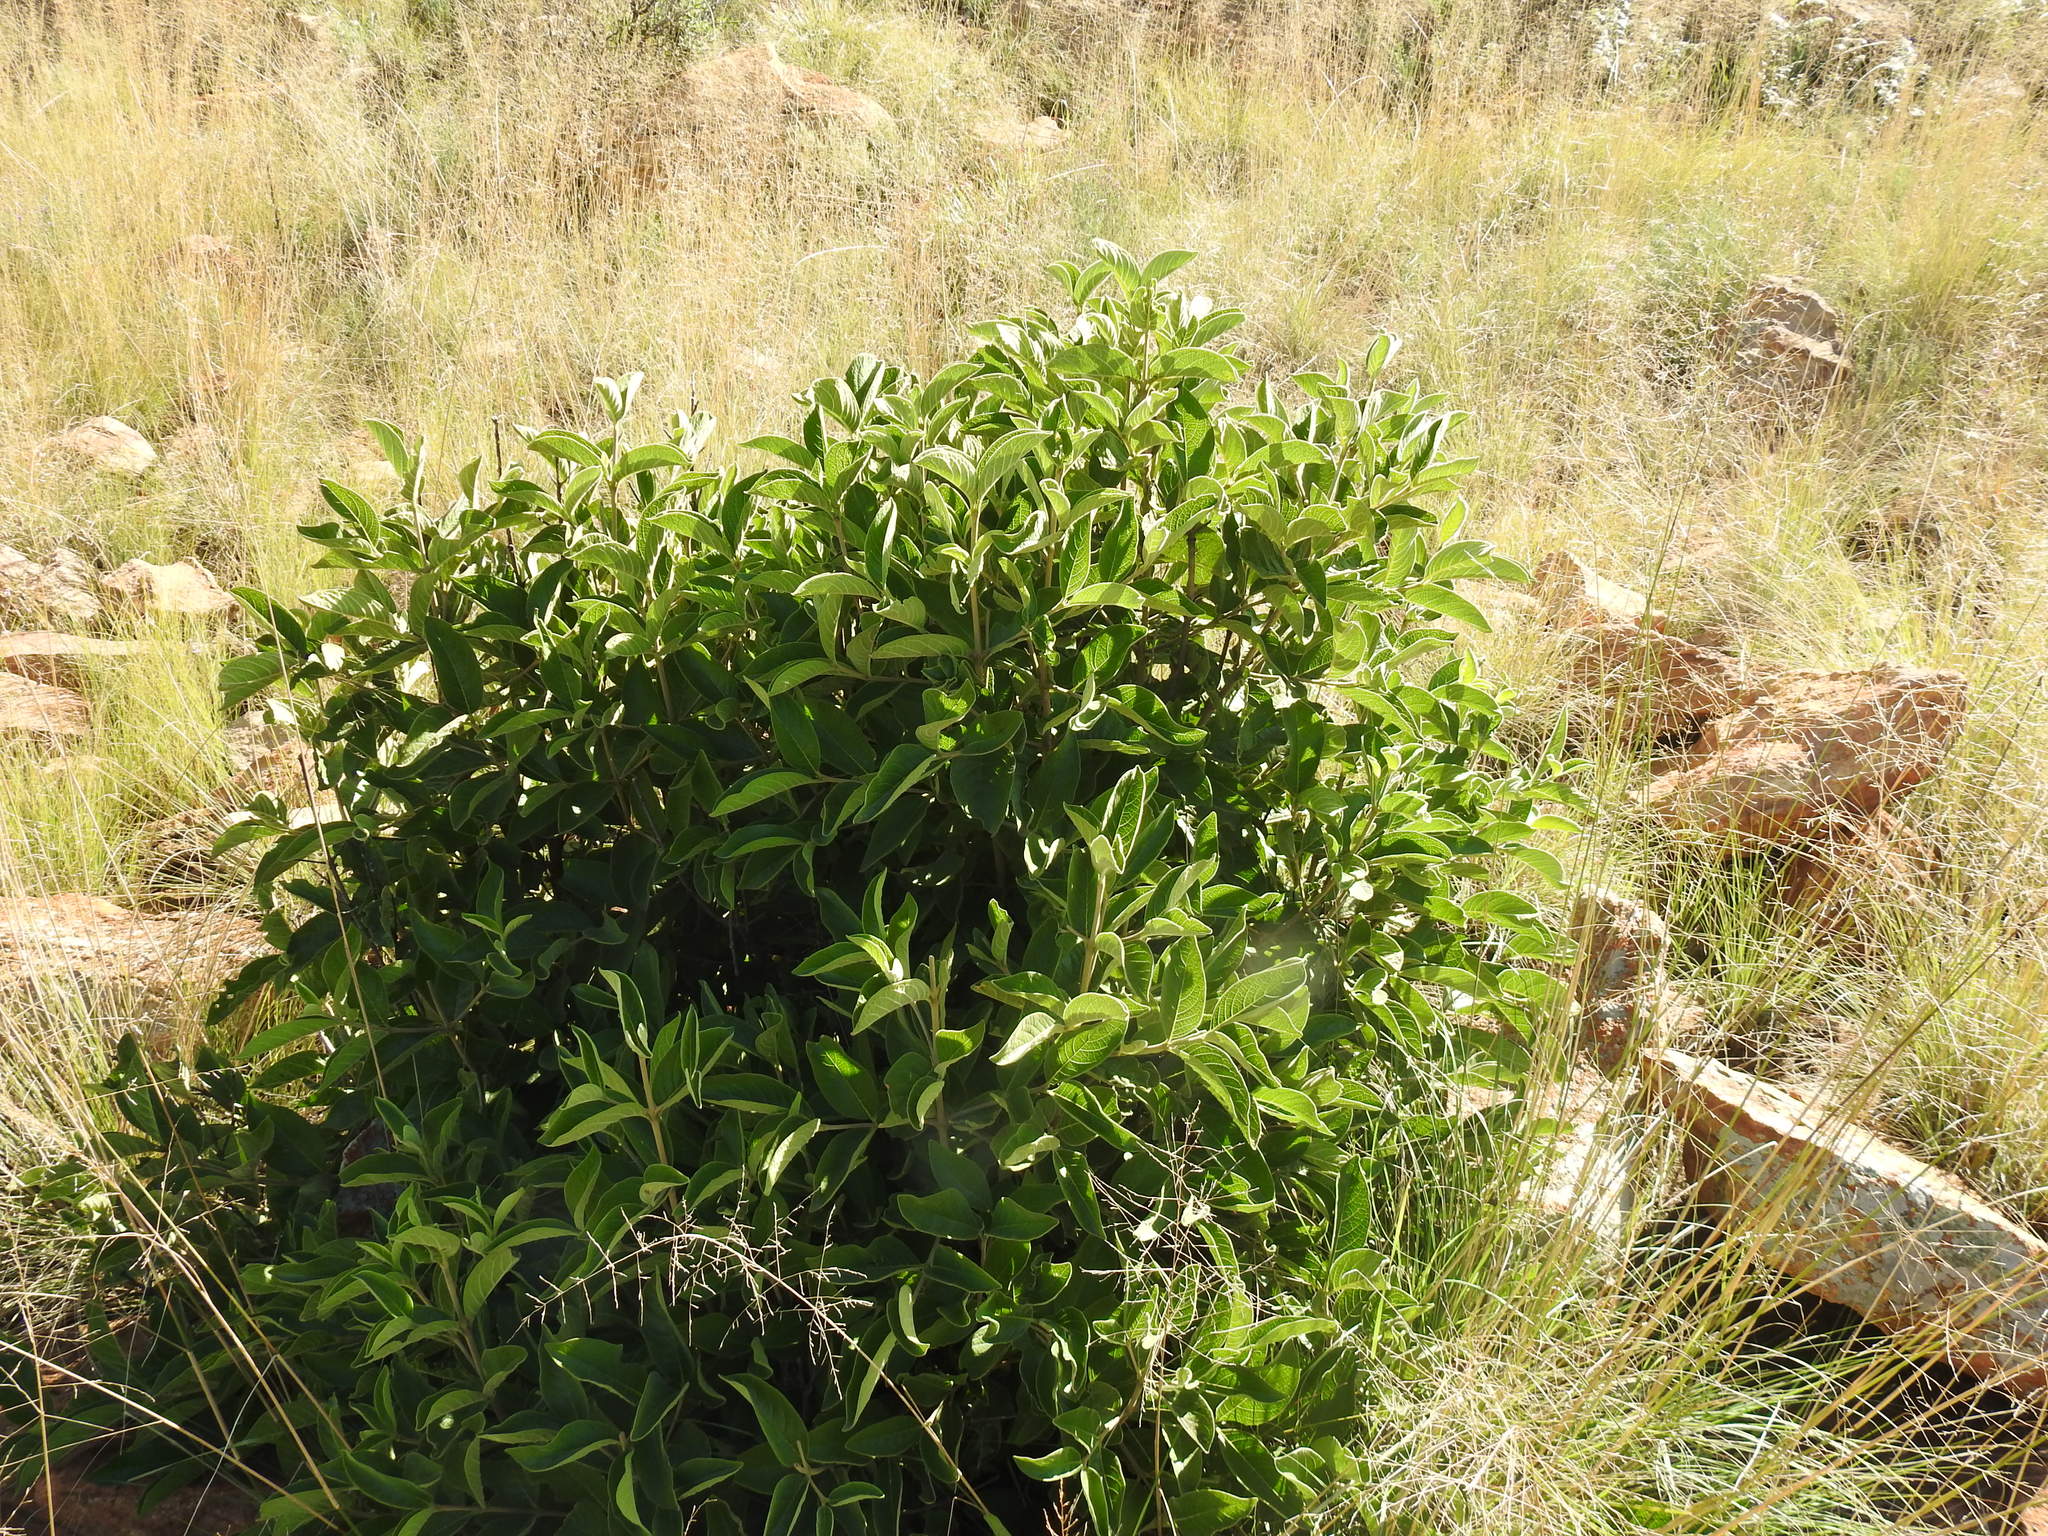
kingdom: Plantae
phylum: Tracheophyta
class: Magnoliopsida
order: Gentianales
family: Rubiaceae
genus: Vangueria
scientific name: Vangueria infausta
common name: Medlar
